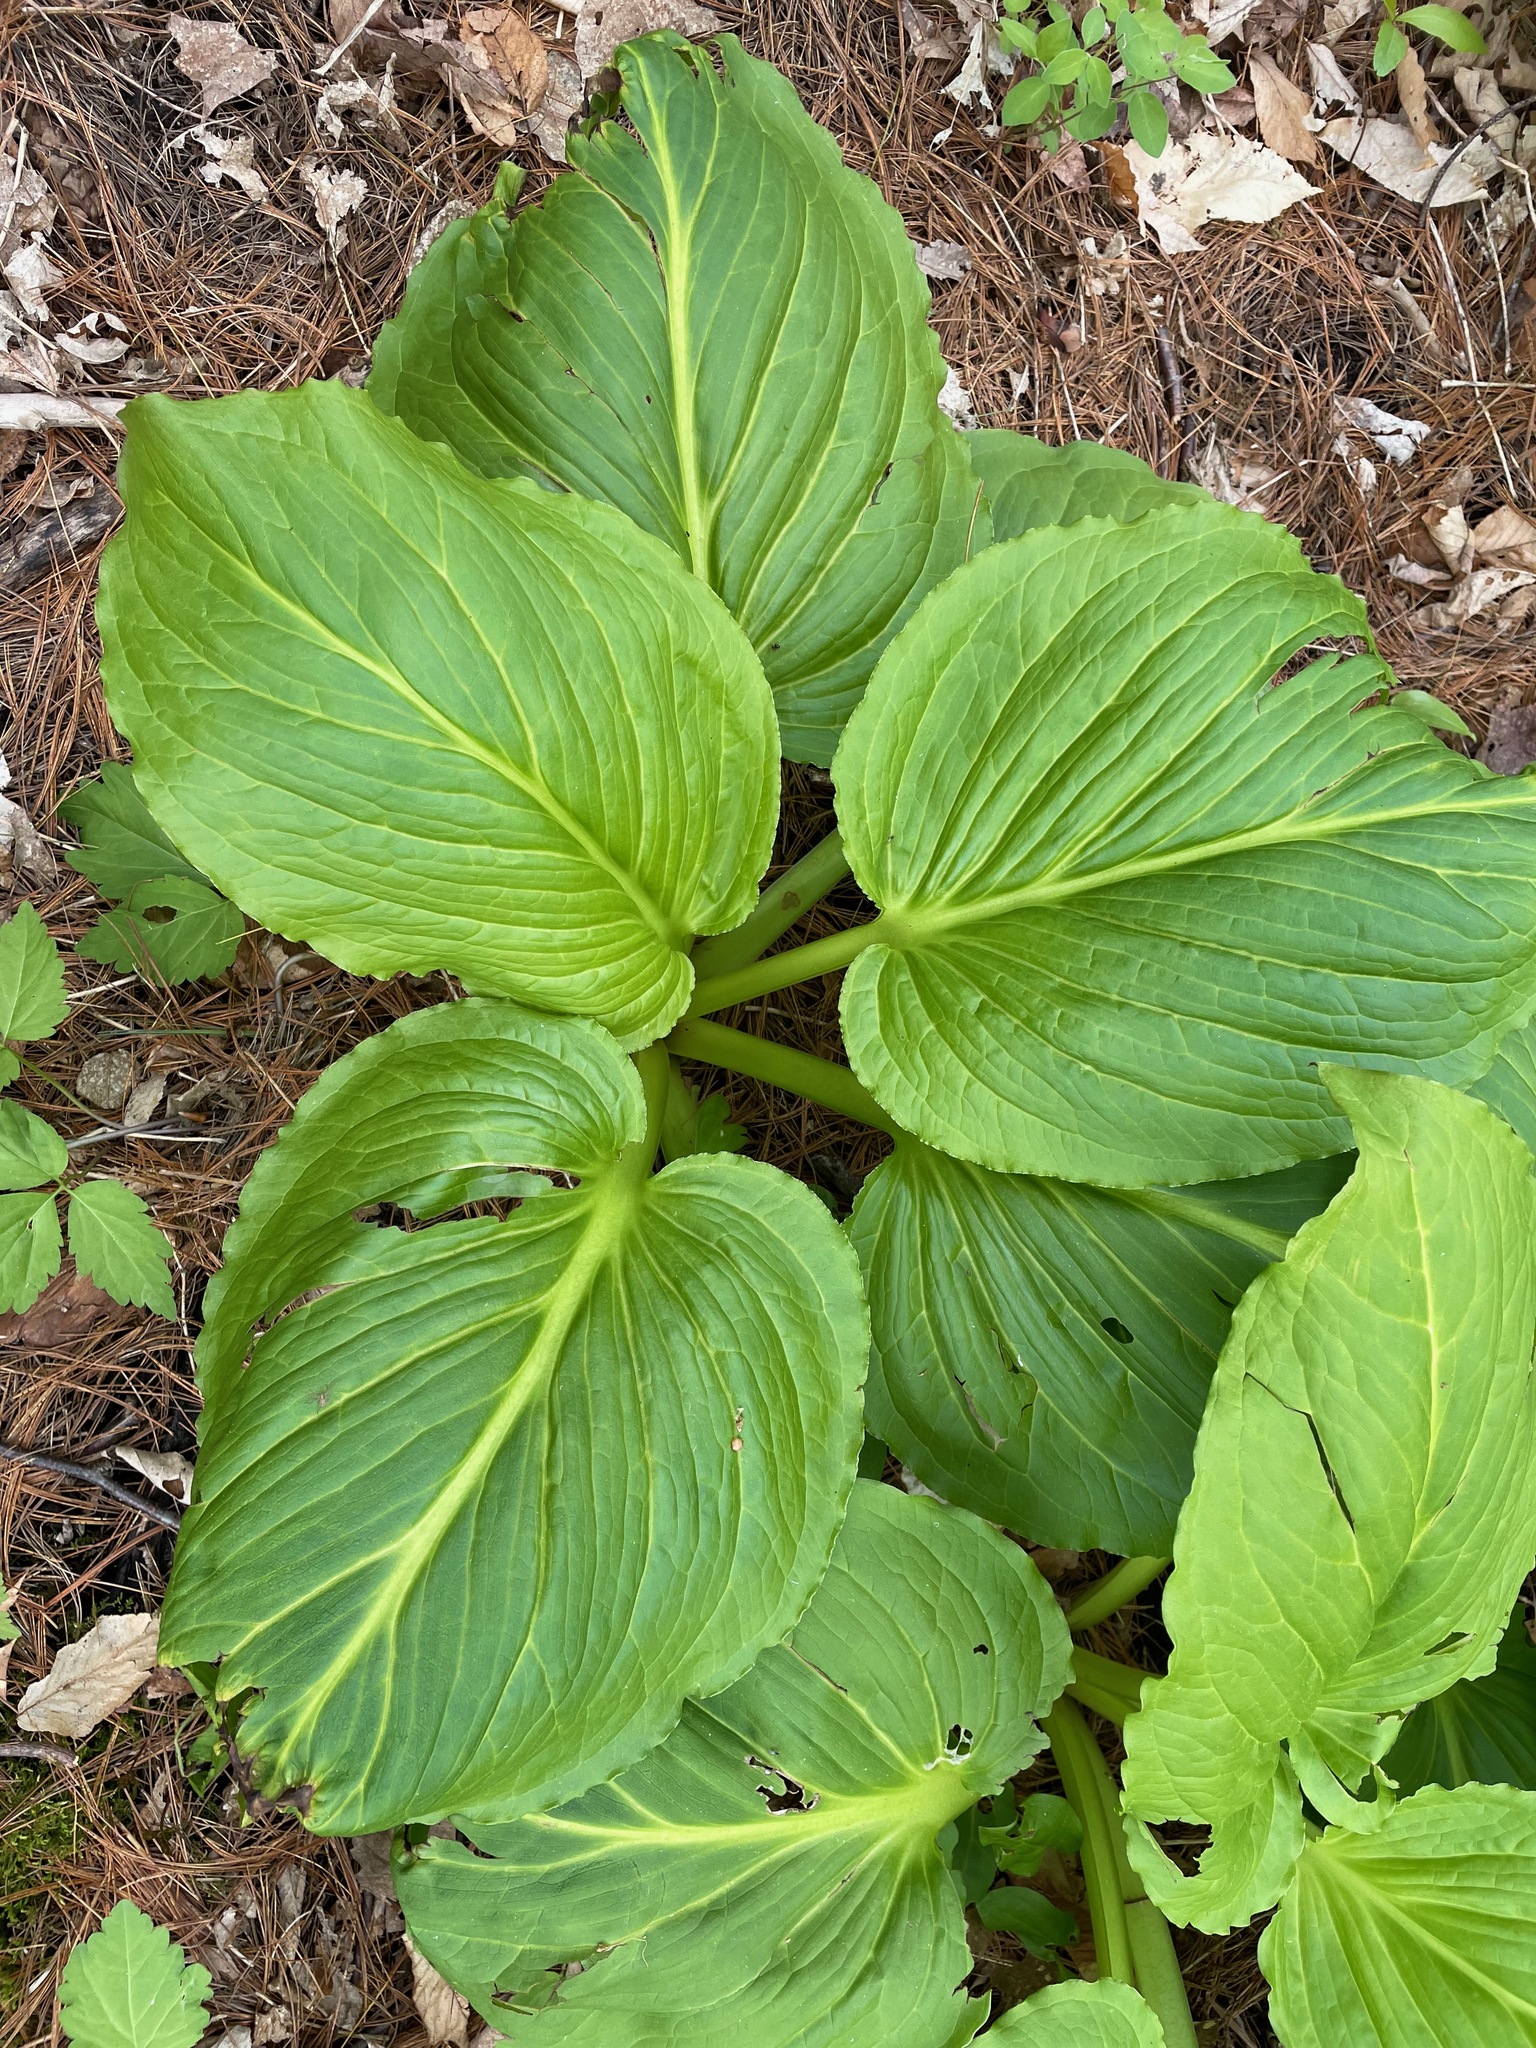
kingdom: Plantae
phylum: Tracheophyta
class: Liliopsida
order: Alismatales
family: Araceae
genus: Symplocarpus
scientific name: Symplocarpus foetidus
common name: Eastern skunk cabbage
